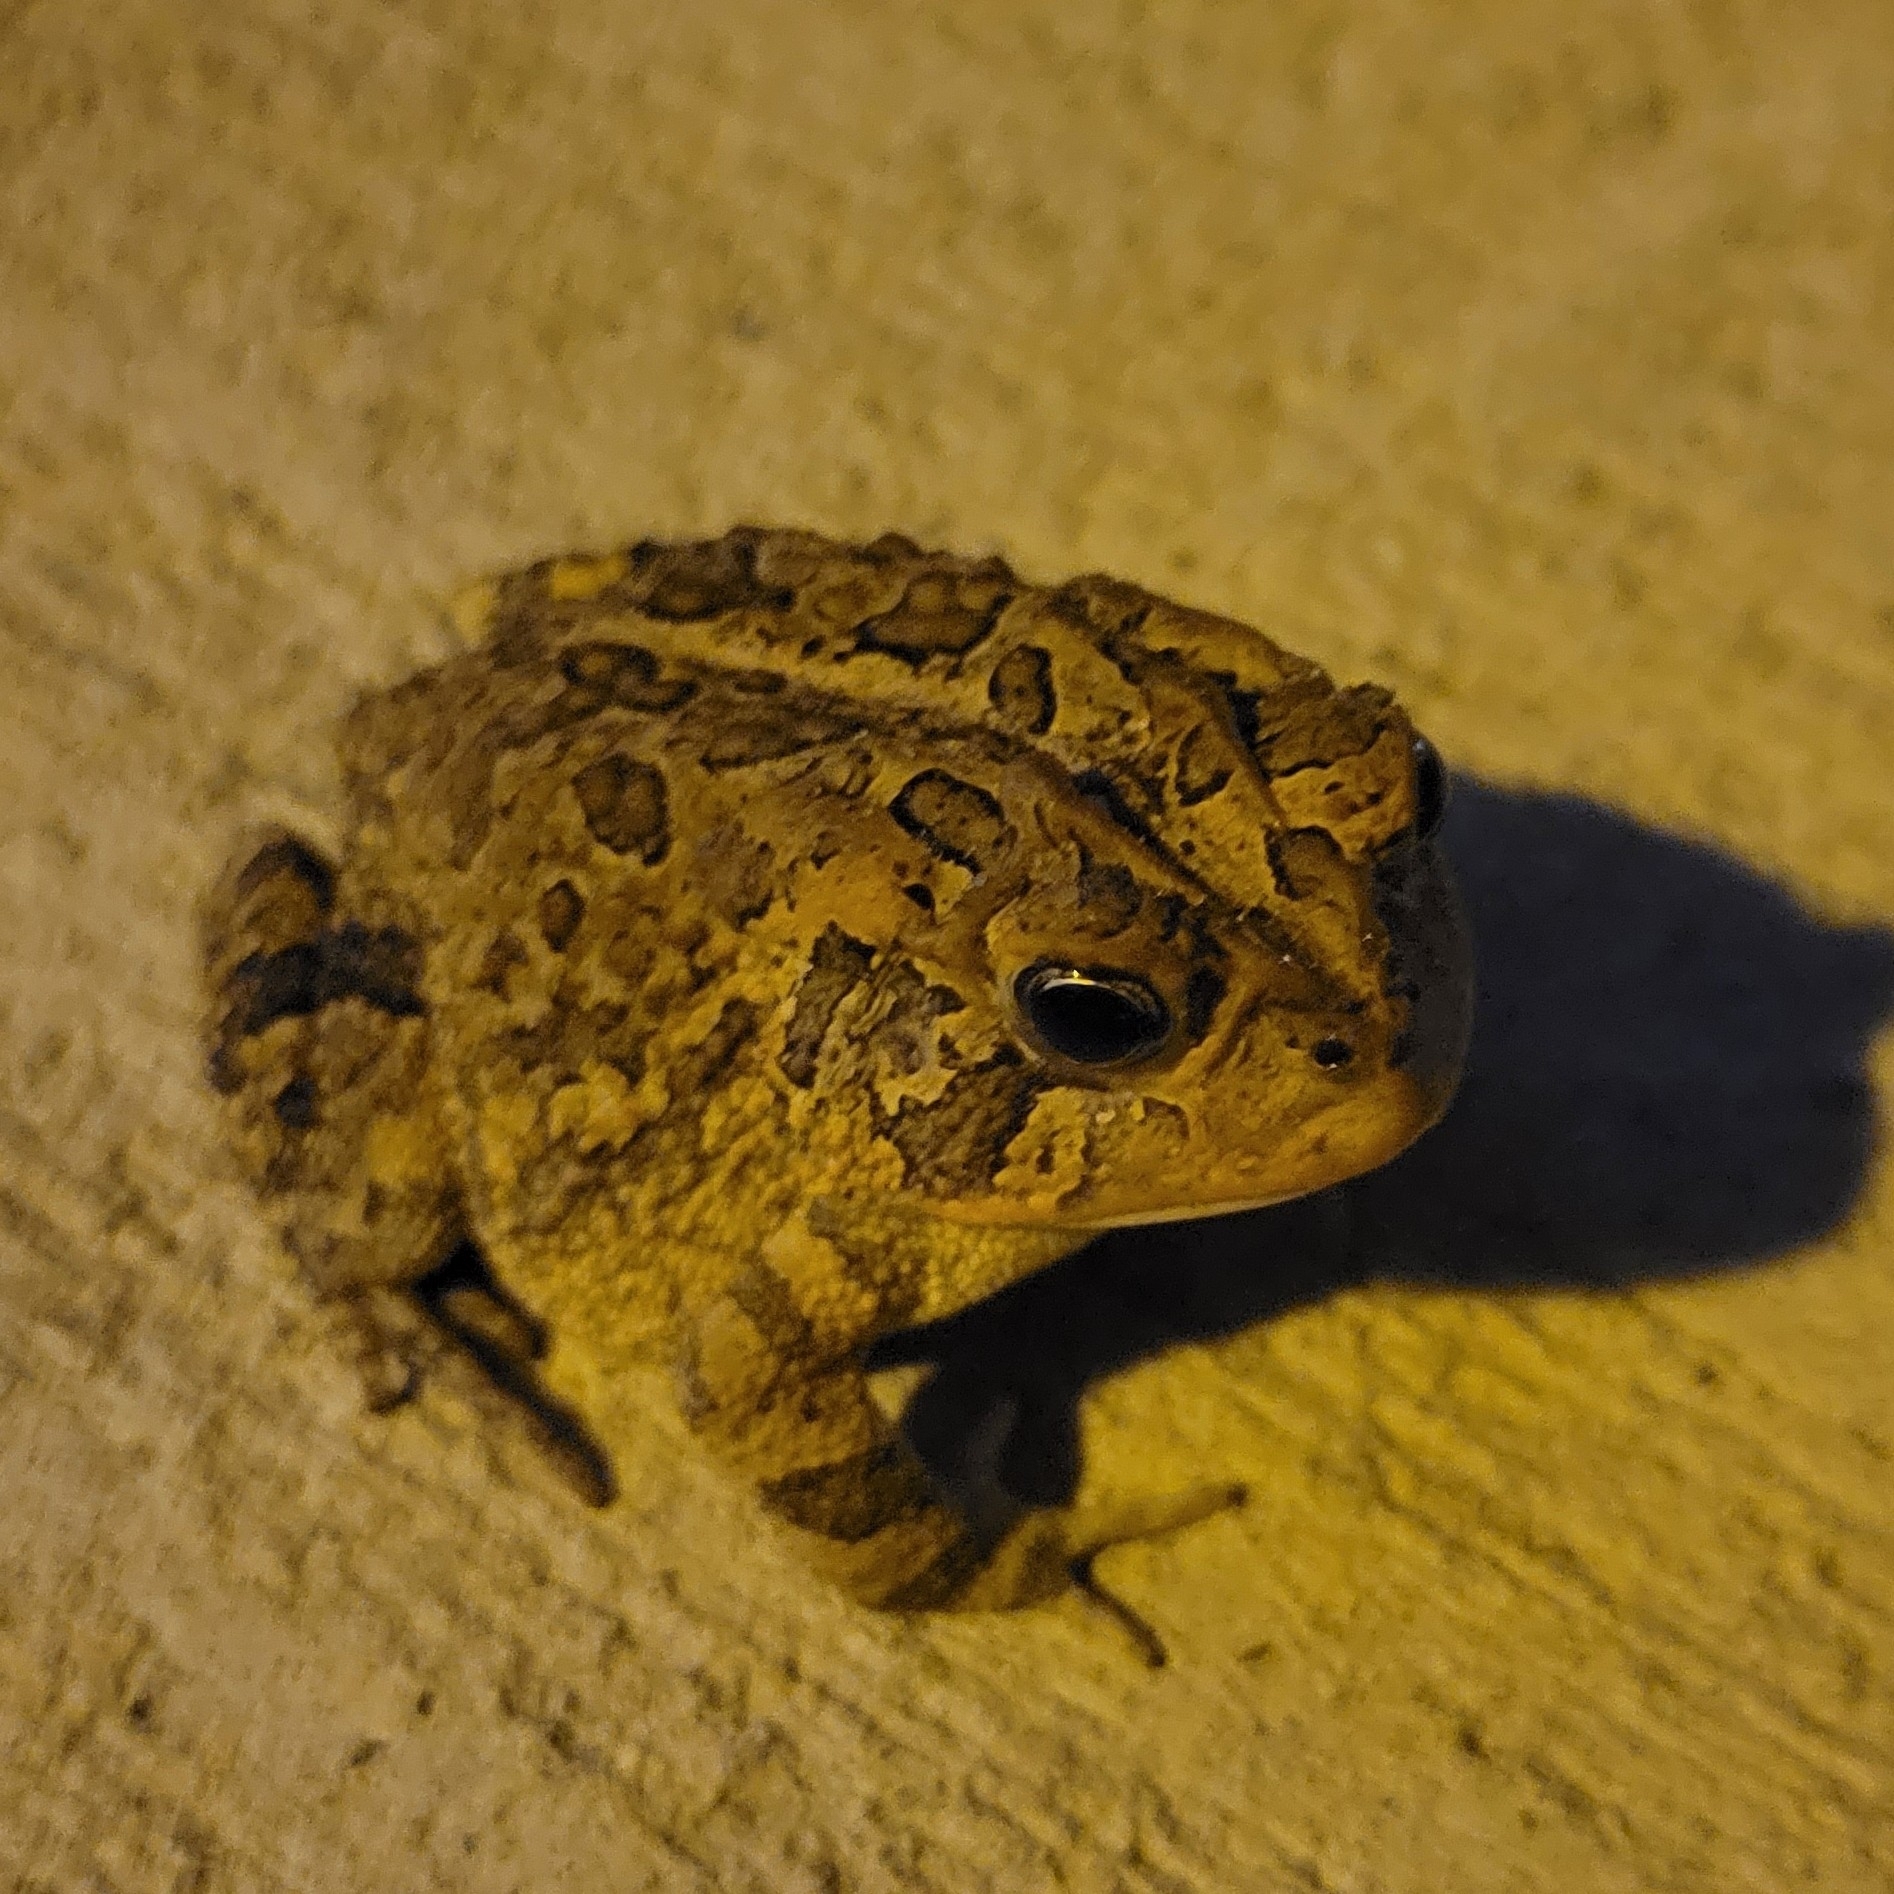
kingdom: Animalia
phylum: Chordata
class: Amphibia
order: Anura
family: Bufonidae
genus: Anaxyrus
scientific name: Anaxyrus terrestris
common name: Southern toad
